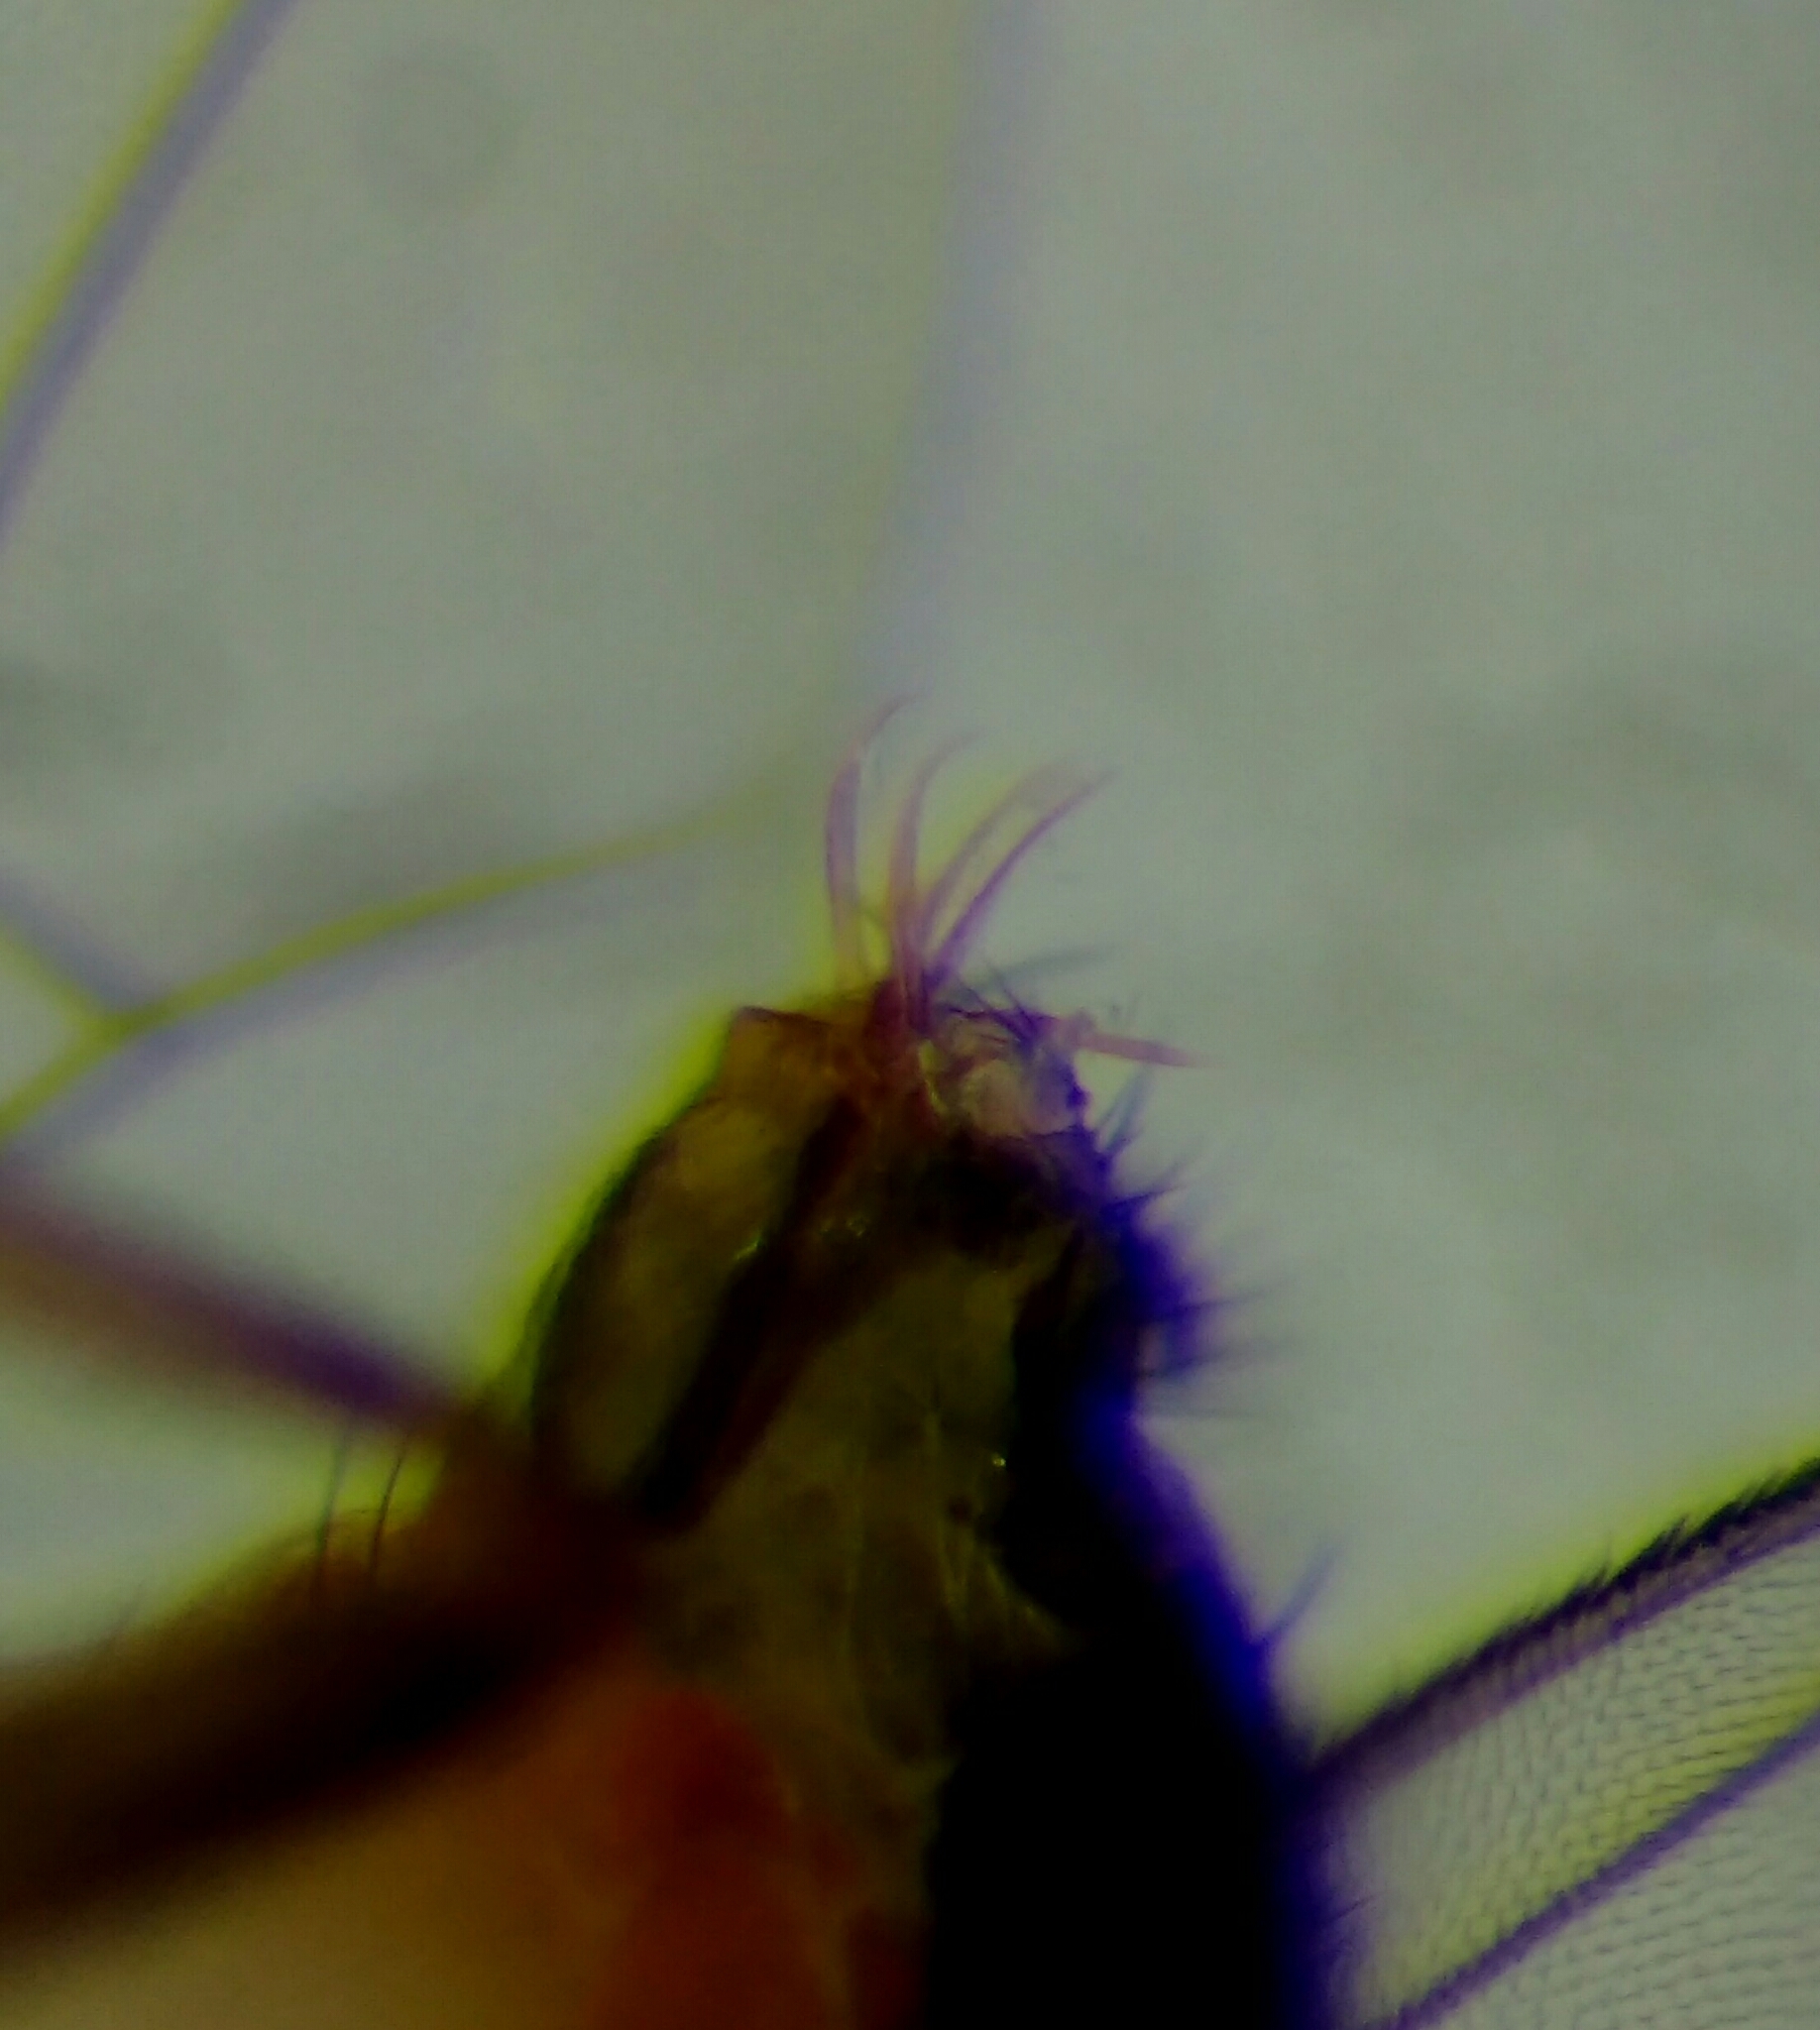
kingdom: Animalia
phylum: Arthropoda
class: Insecta
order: Diptera
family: Drosophilidae
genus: Drosophila
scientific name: Drosophila subsilvestris
